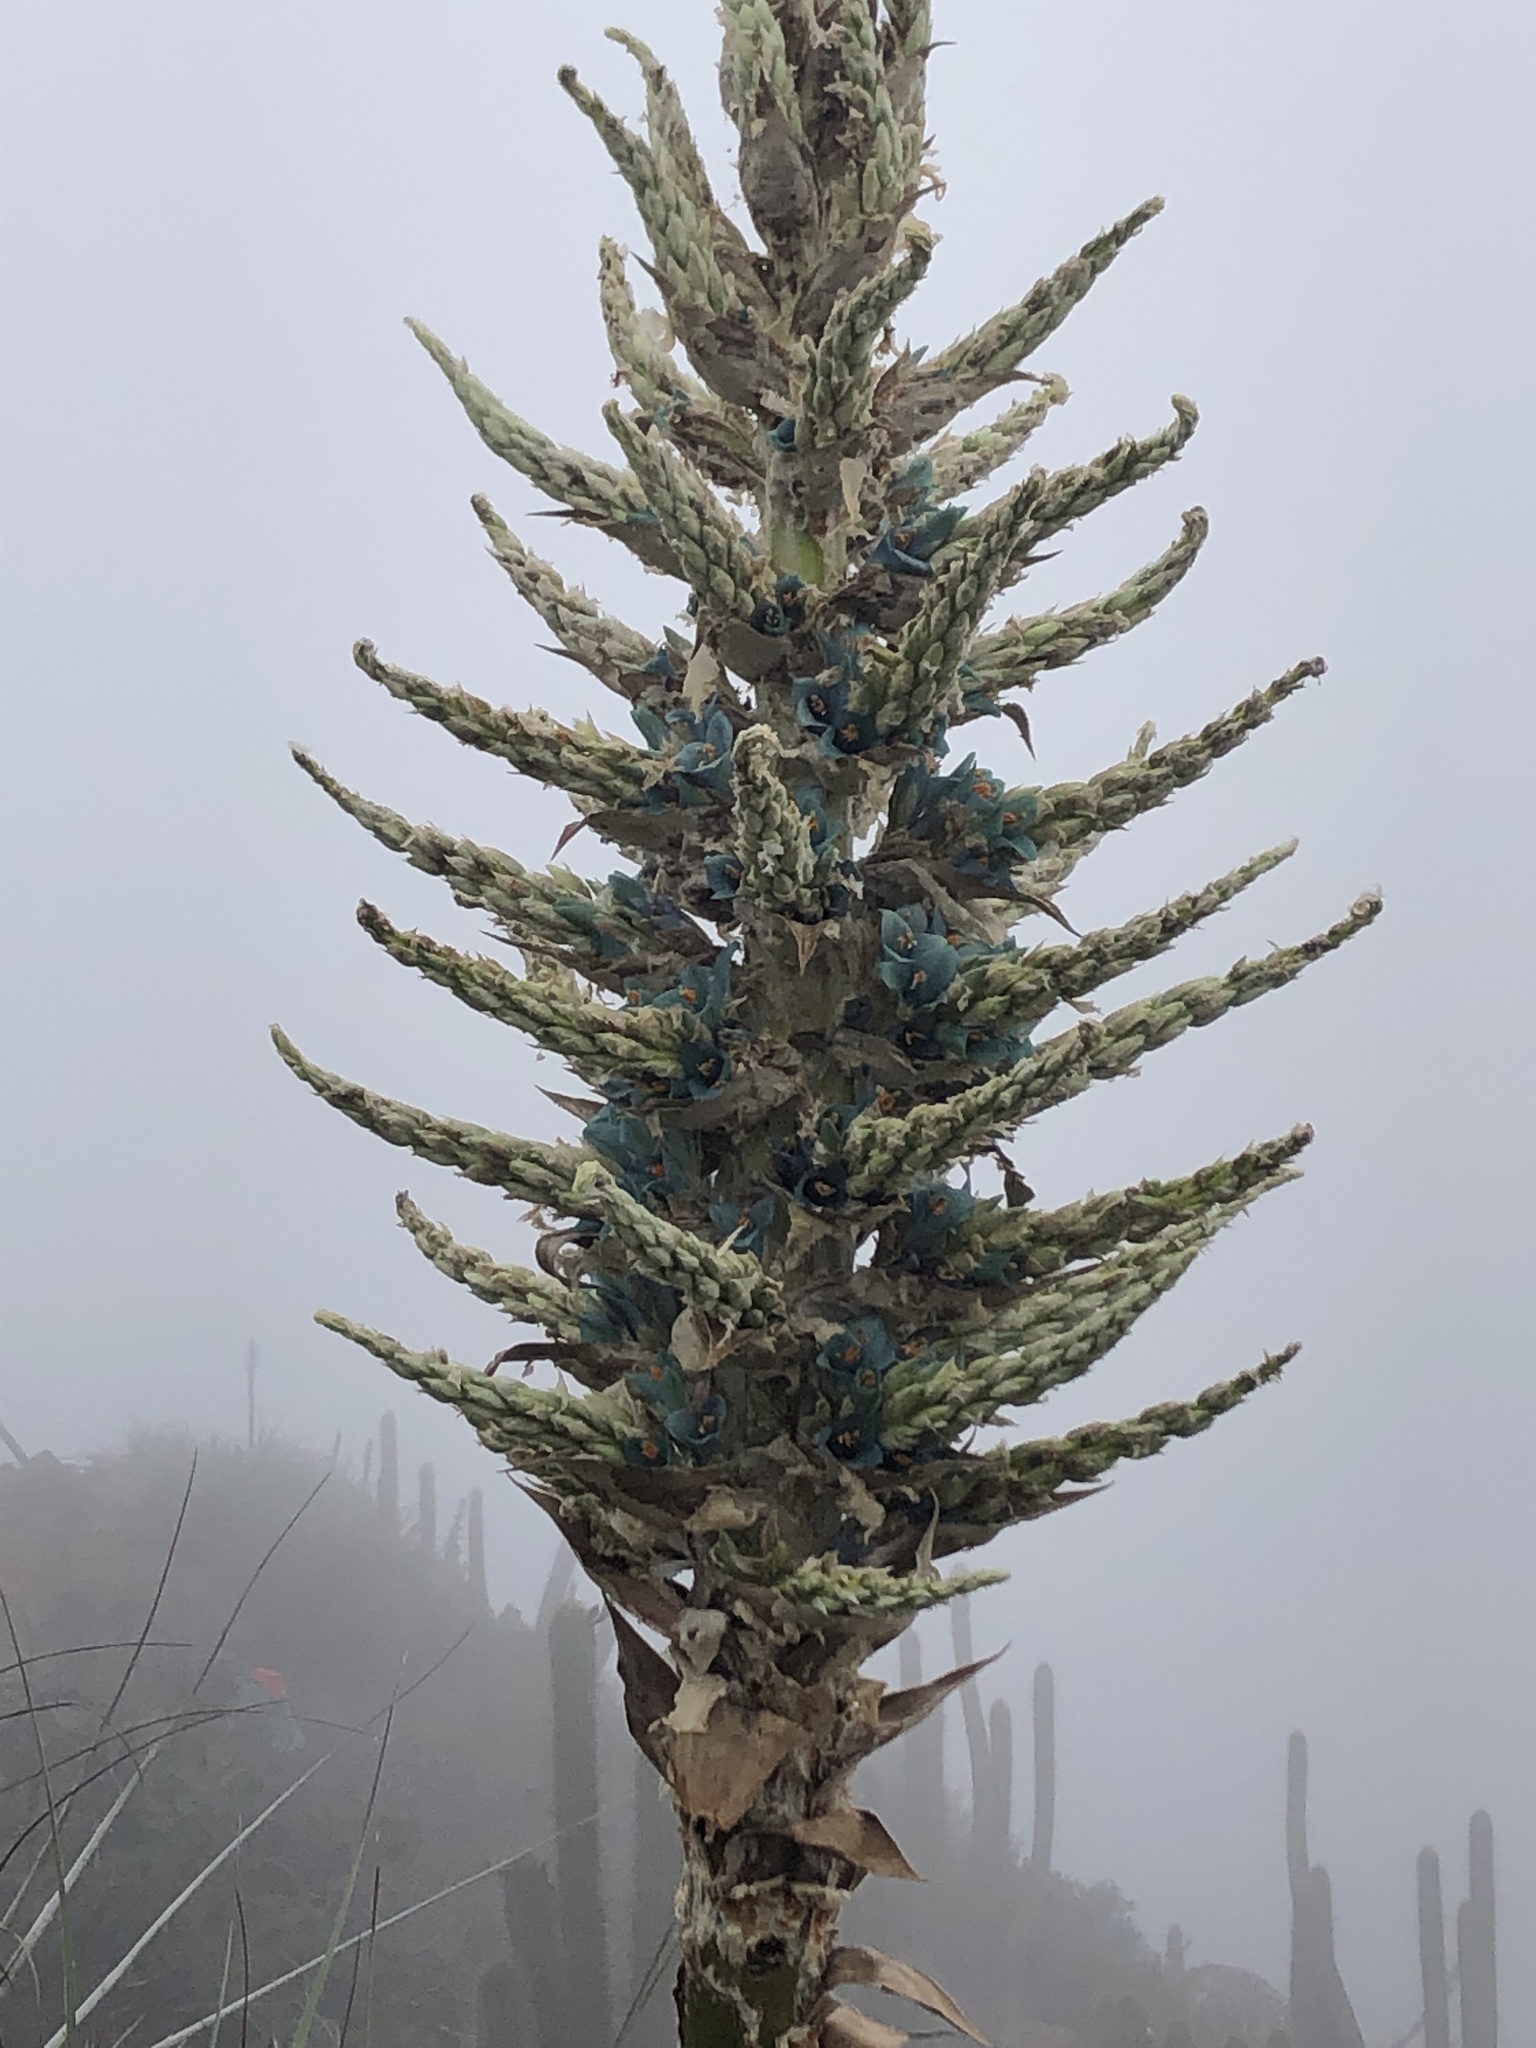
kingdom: Plantae
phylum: Tracheophyta
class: Liliopsida
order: Poales
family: Bromeliaceae
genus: Puya
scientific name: Puya alpestris
